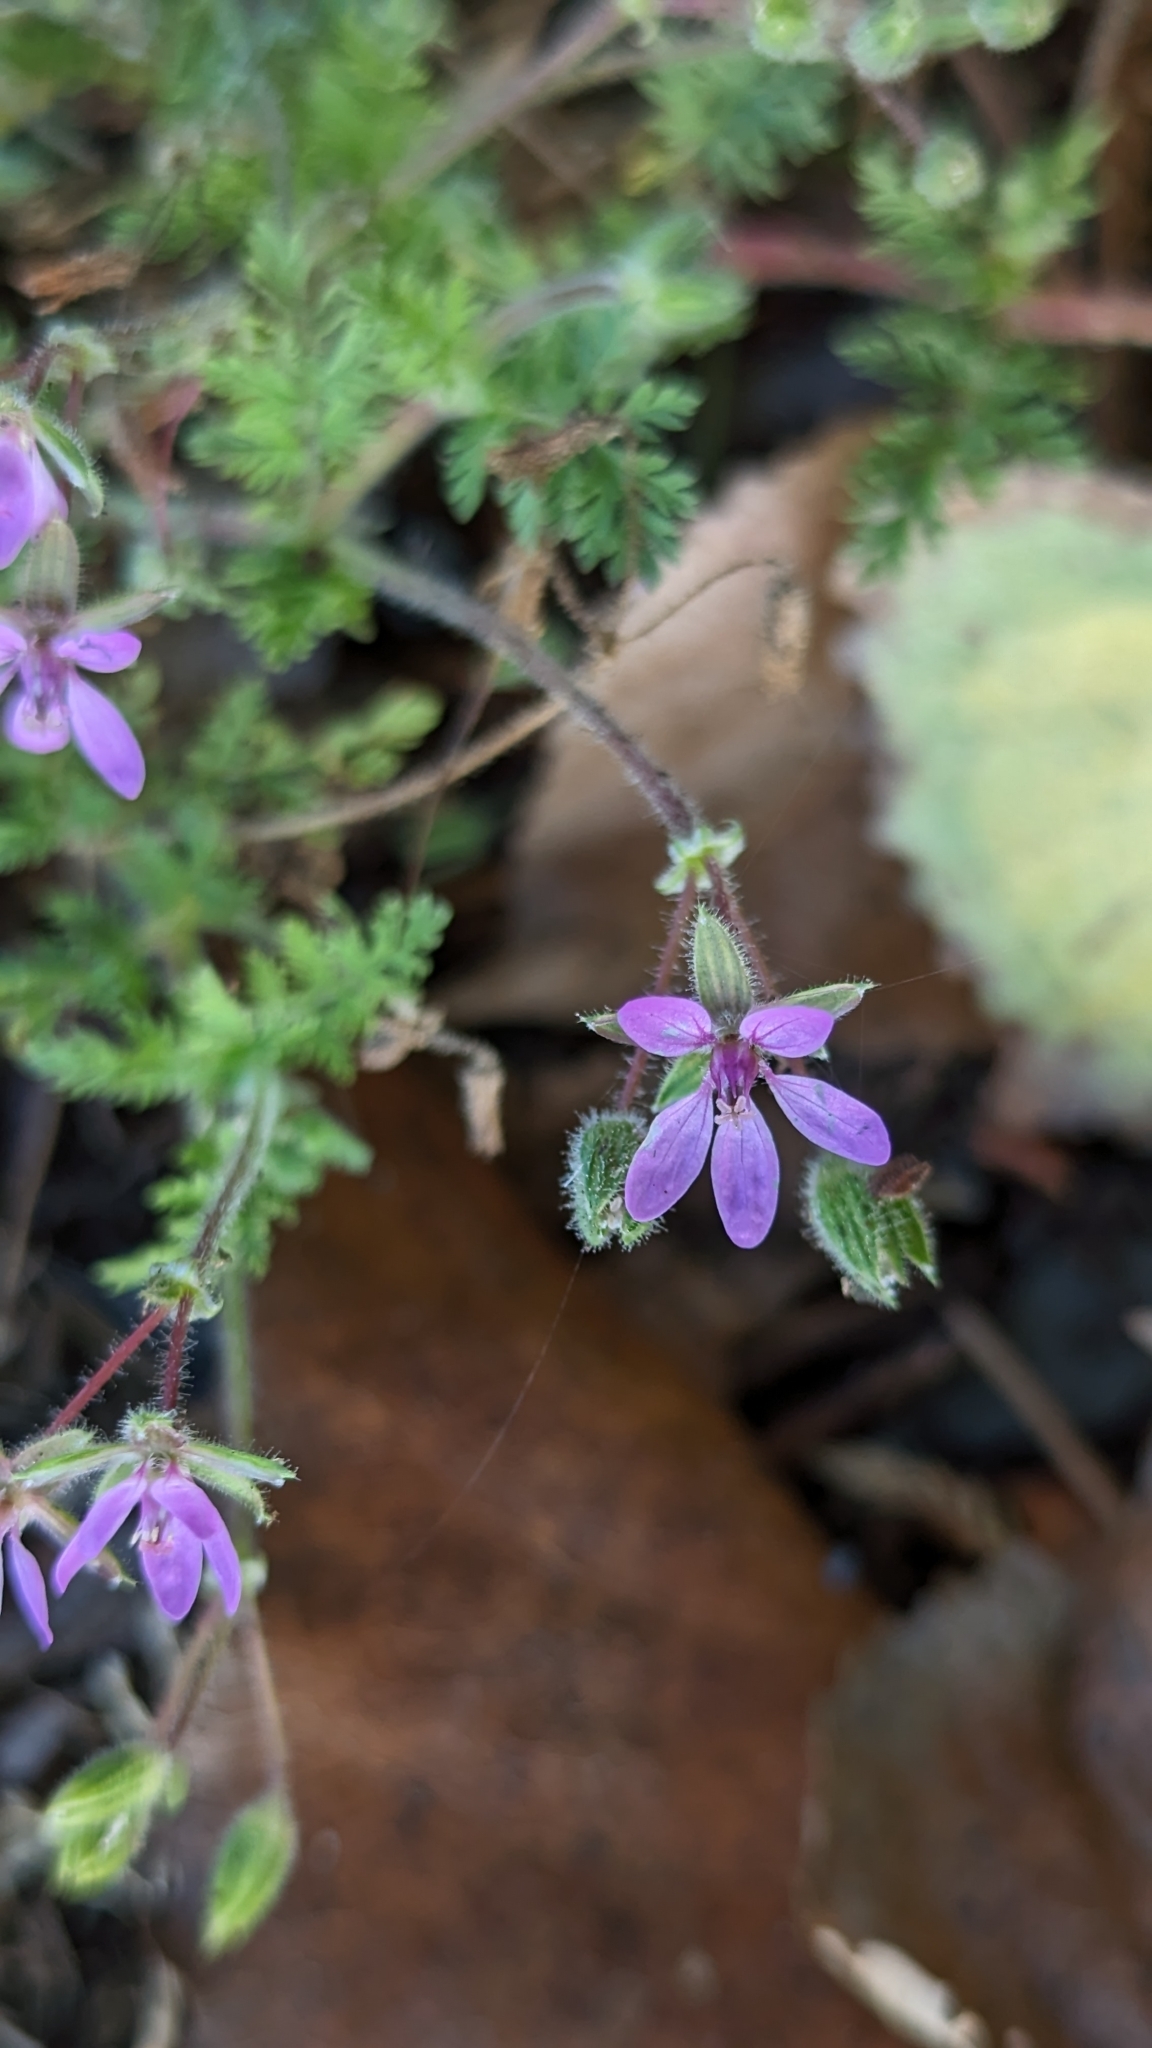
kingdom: Plantae
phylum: Tracheophyta
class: Magnoliopsida
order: Geraniales
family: Geraniaceae
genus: Erodium
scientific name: Erodium cicutarium
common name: Common stork's-bill
